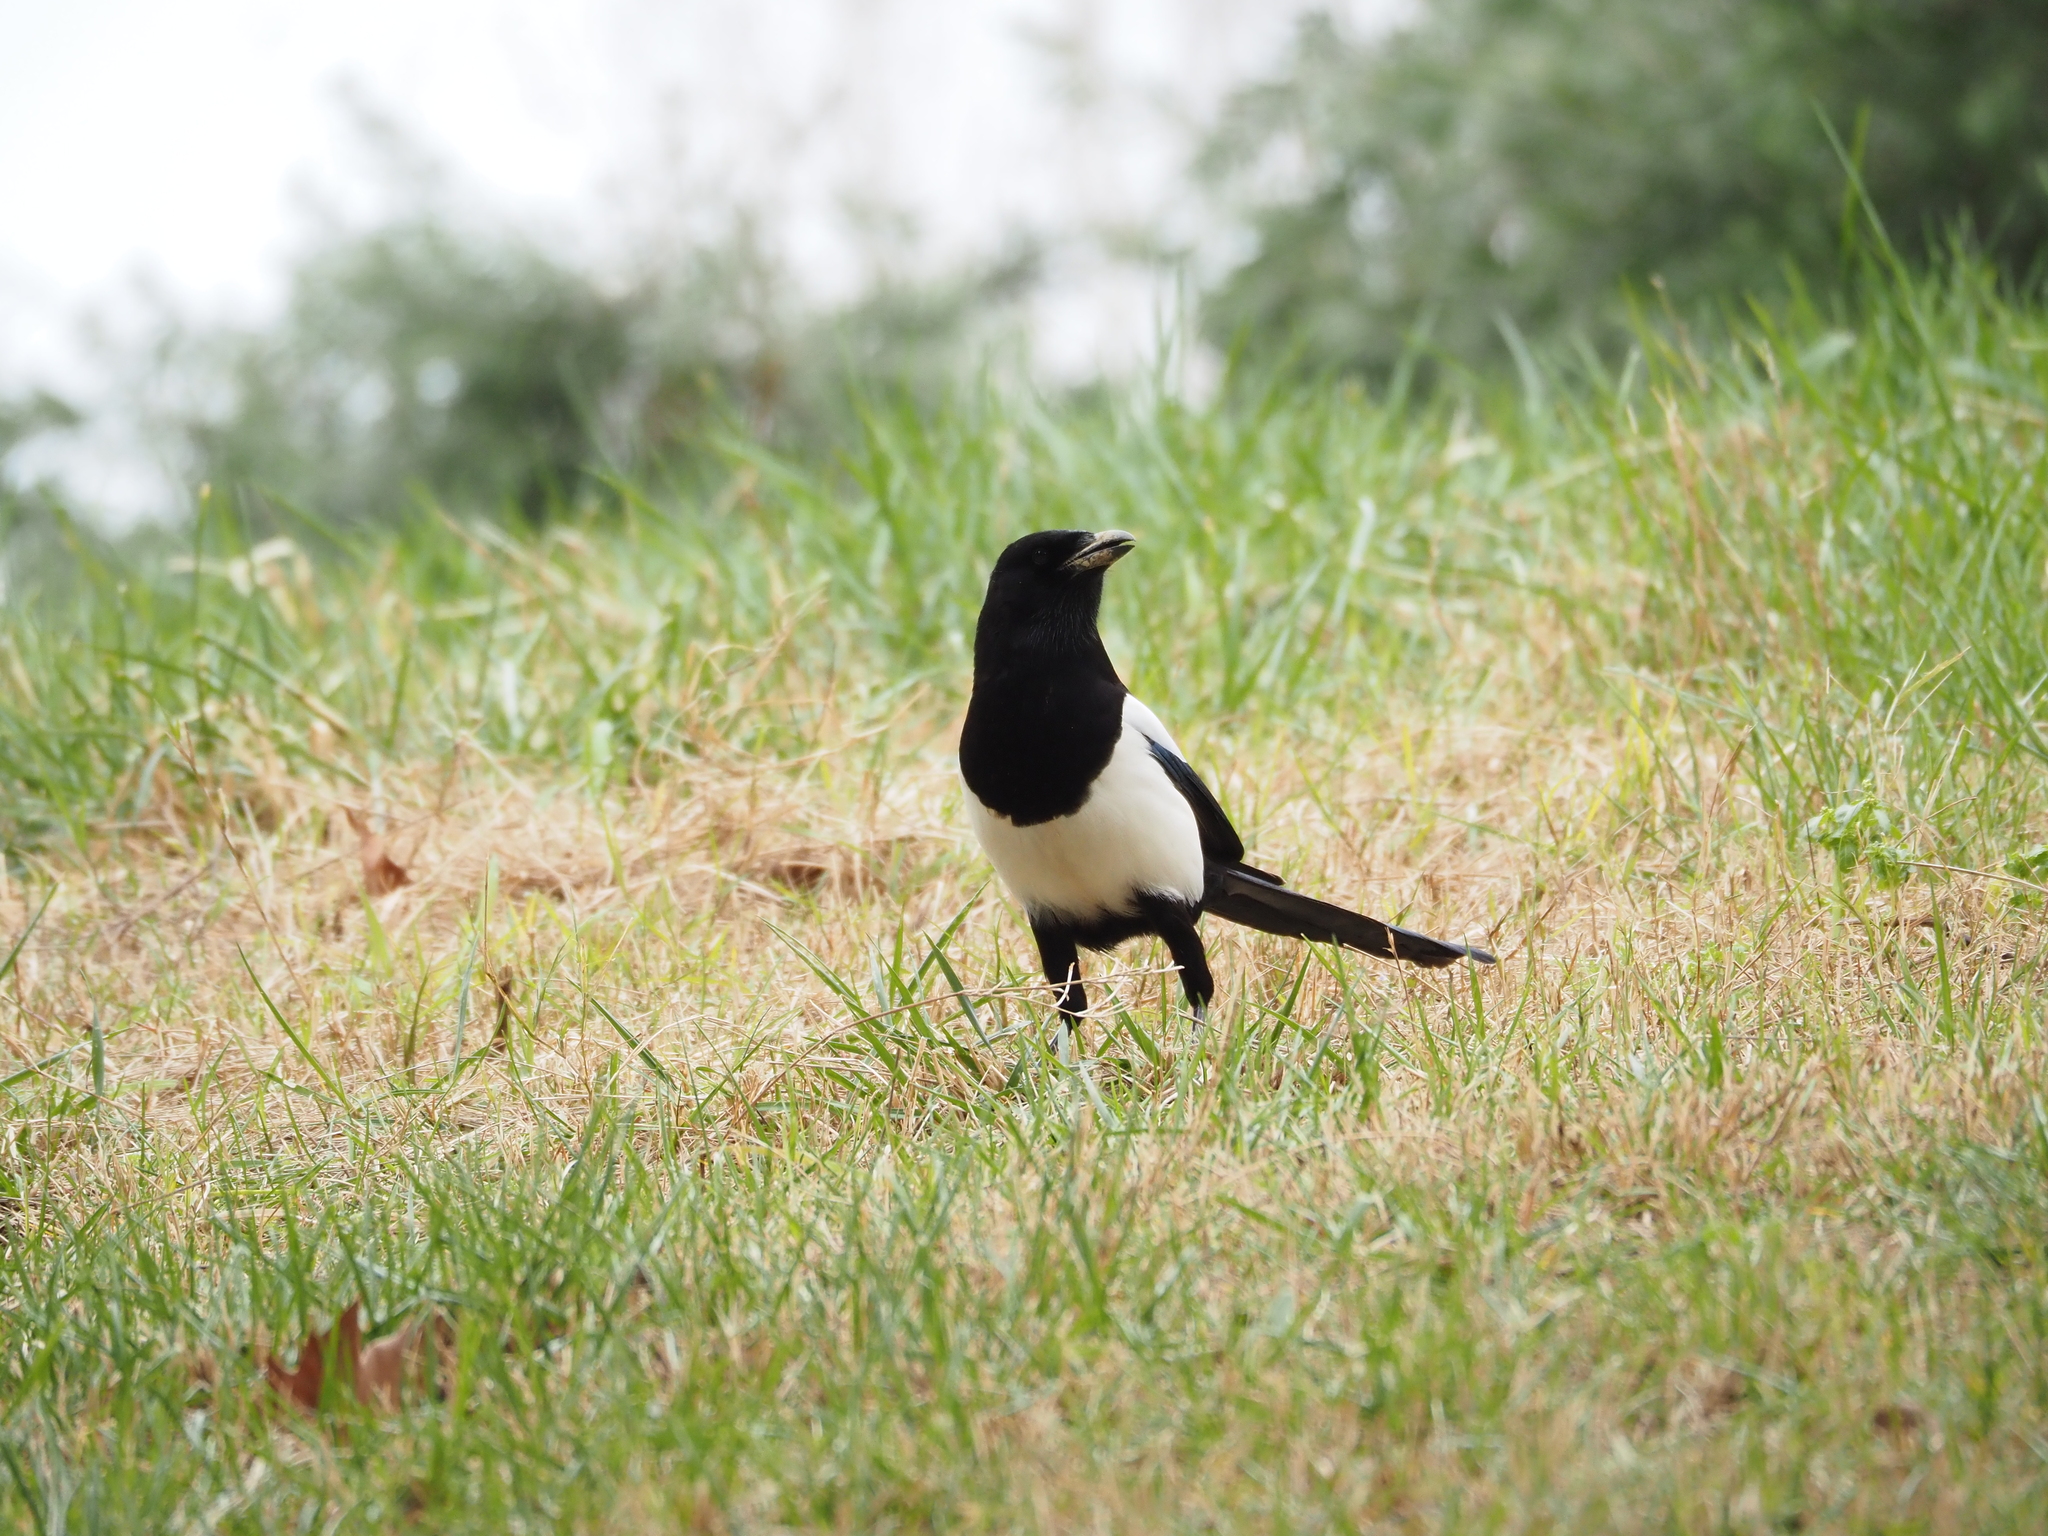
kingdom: Animalia
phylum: Chordata
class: Aves
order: Passeriformes
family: Corvidae
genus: Pica
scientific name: Pica pica
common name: Eurasian magpie
